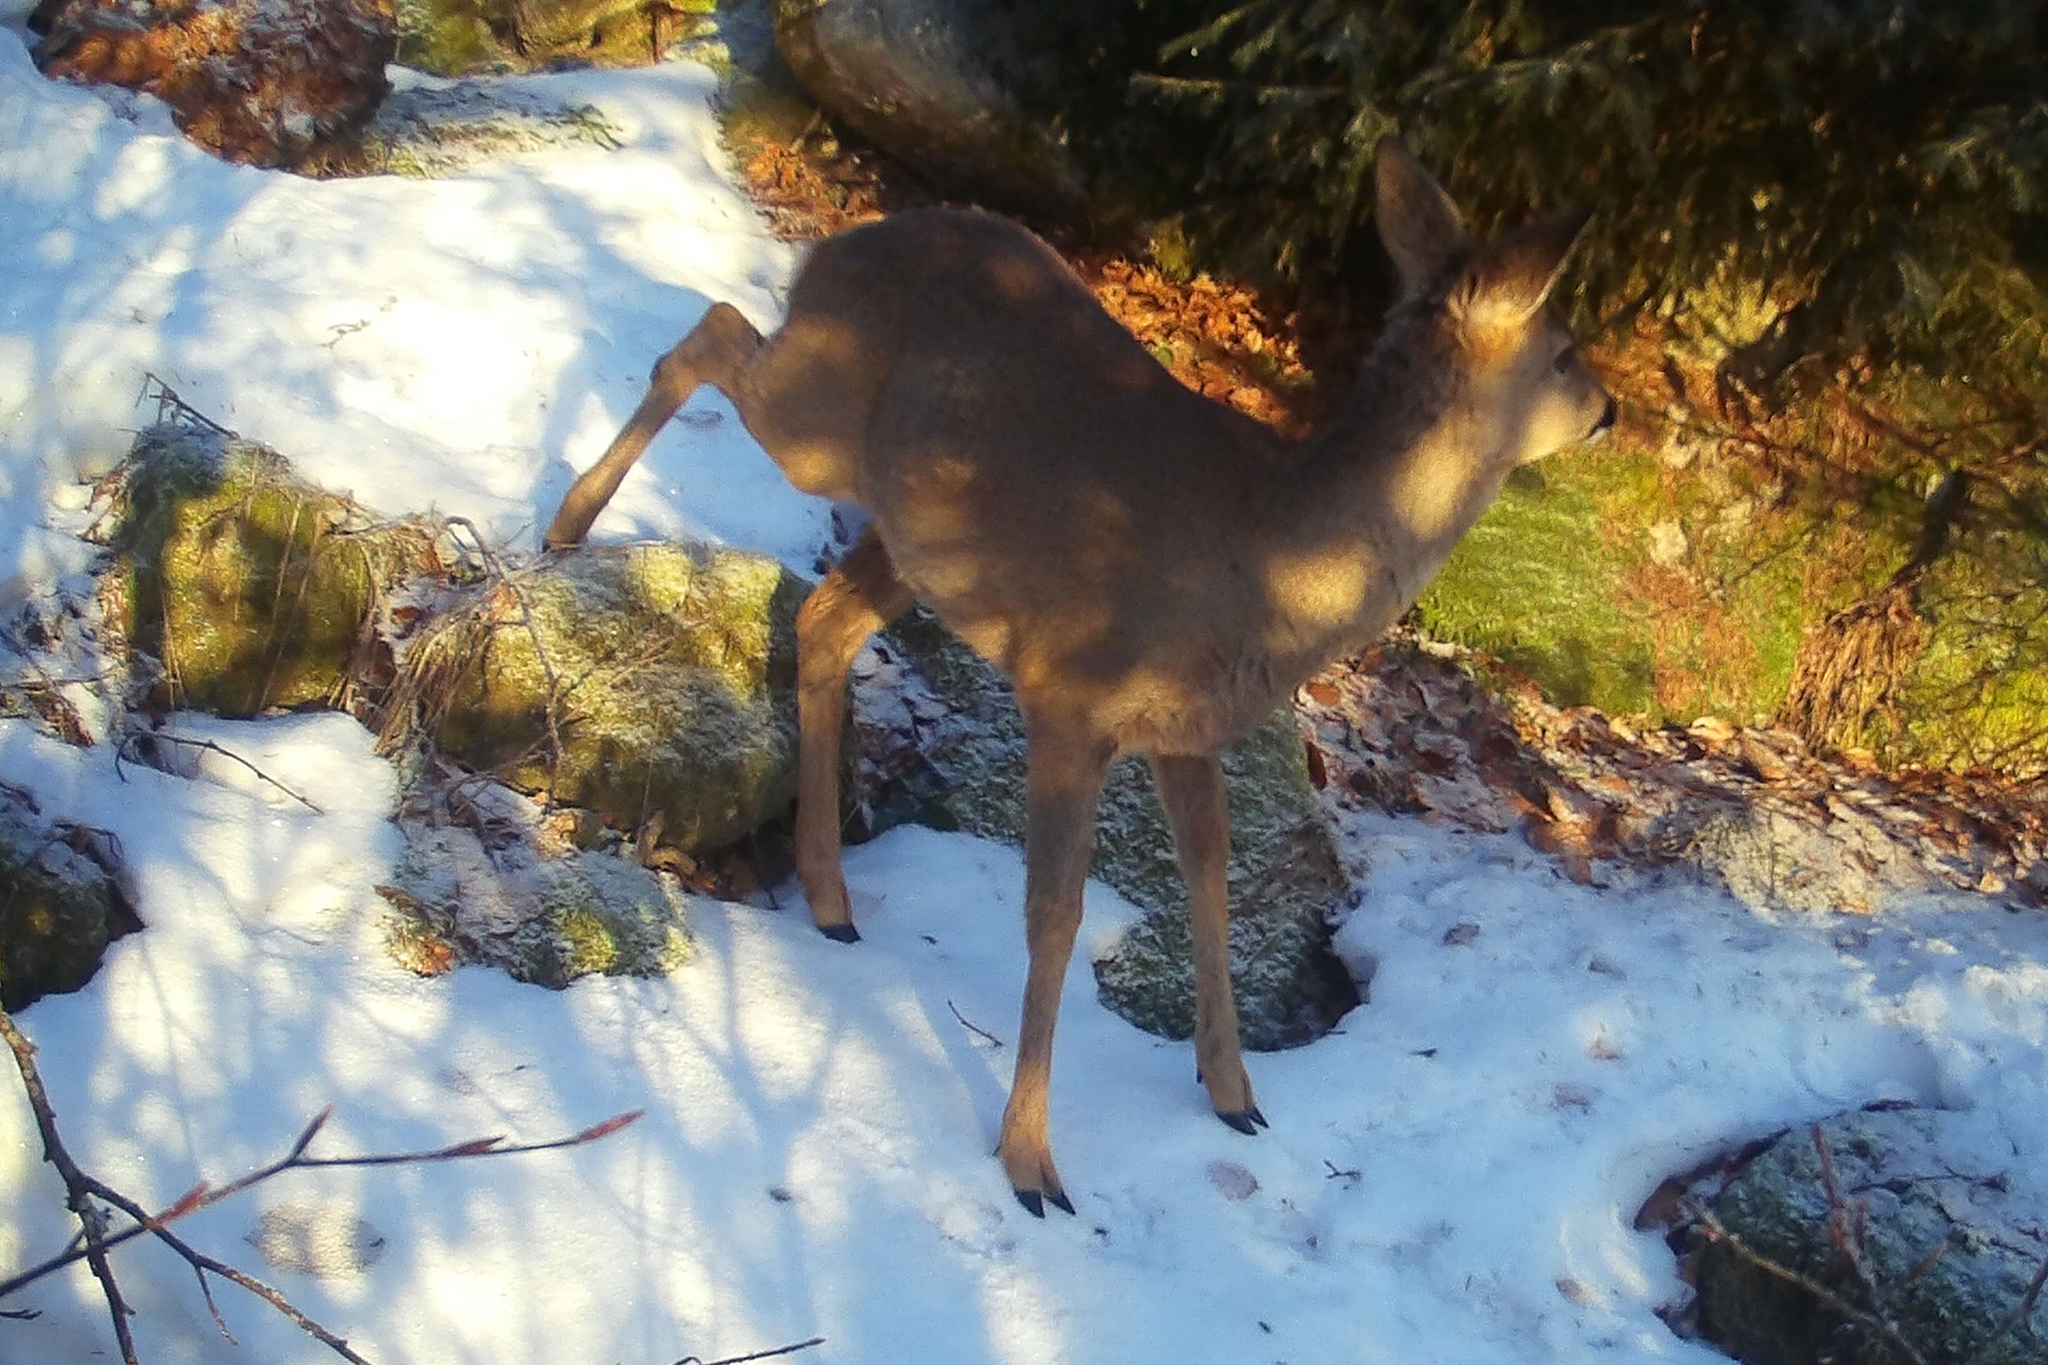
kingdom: Animalia
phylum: Chordata
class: Mammalia
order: Artiodactyla
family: Cervidae
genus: Capreolus
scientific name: Capreolus capreolus
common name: Western roe deer
